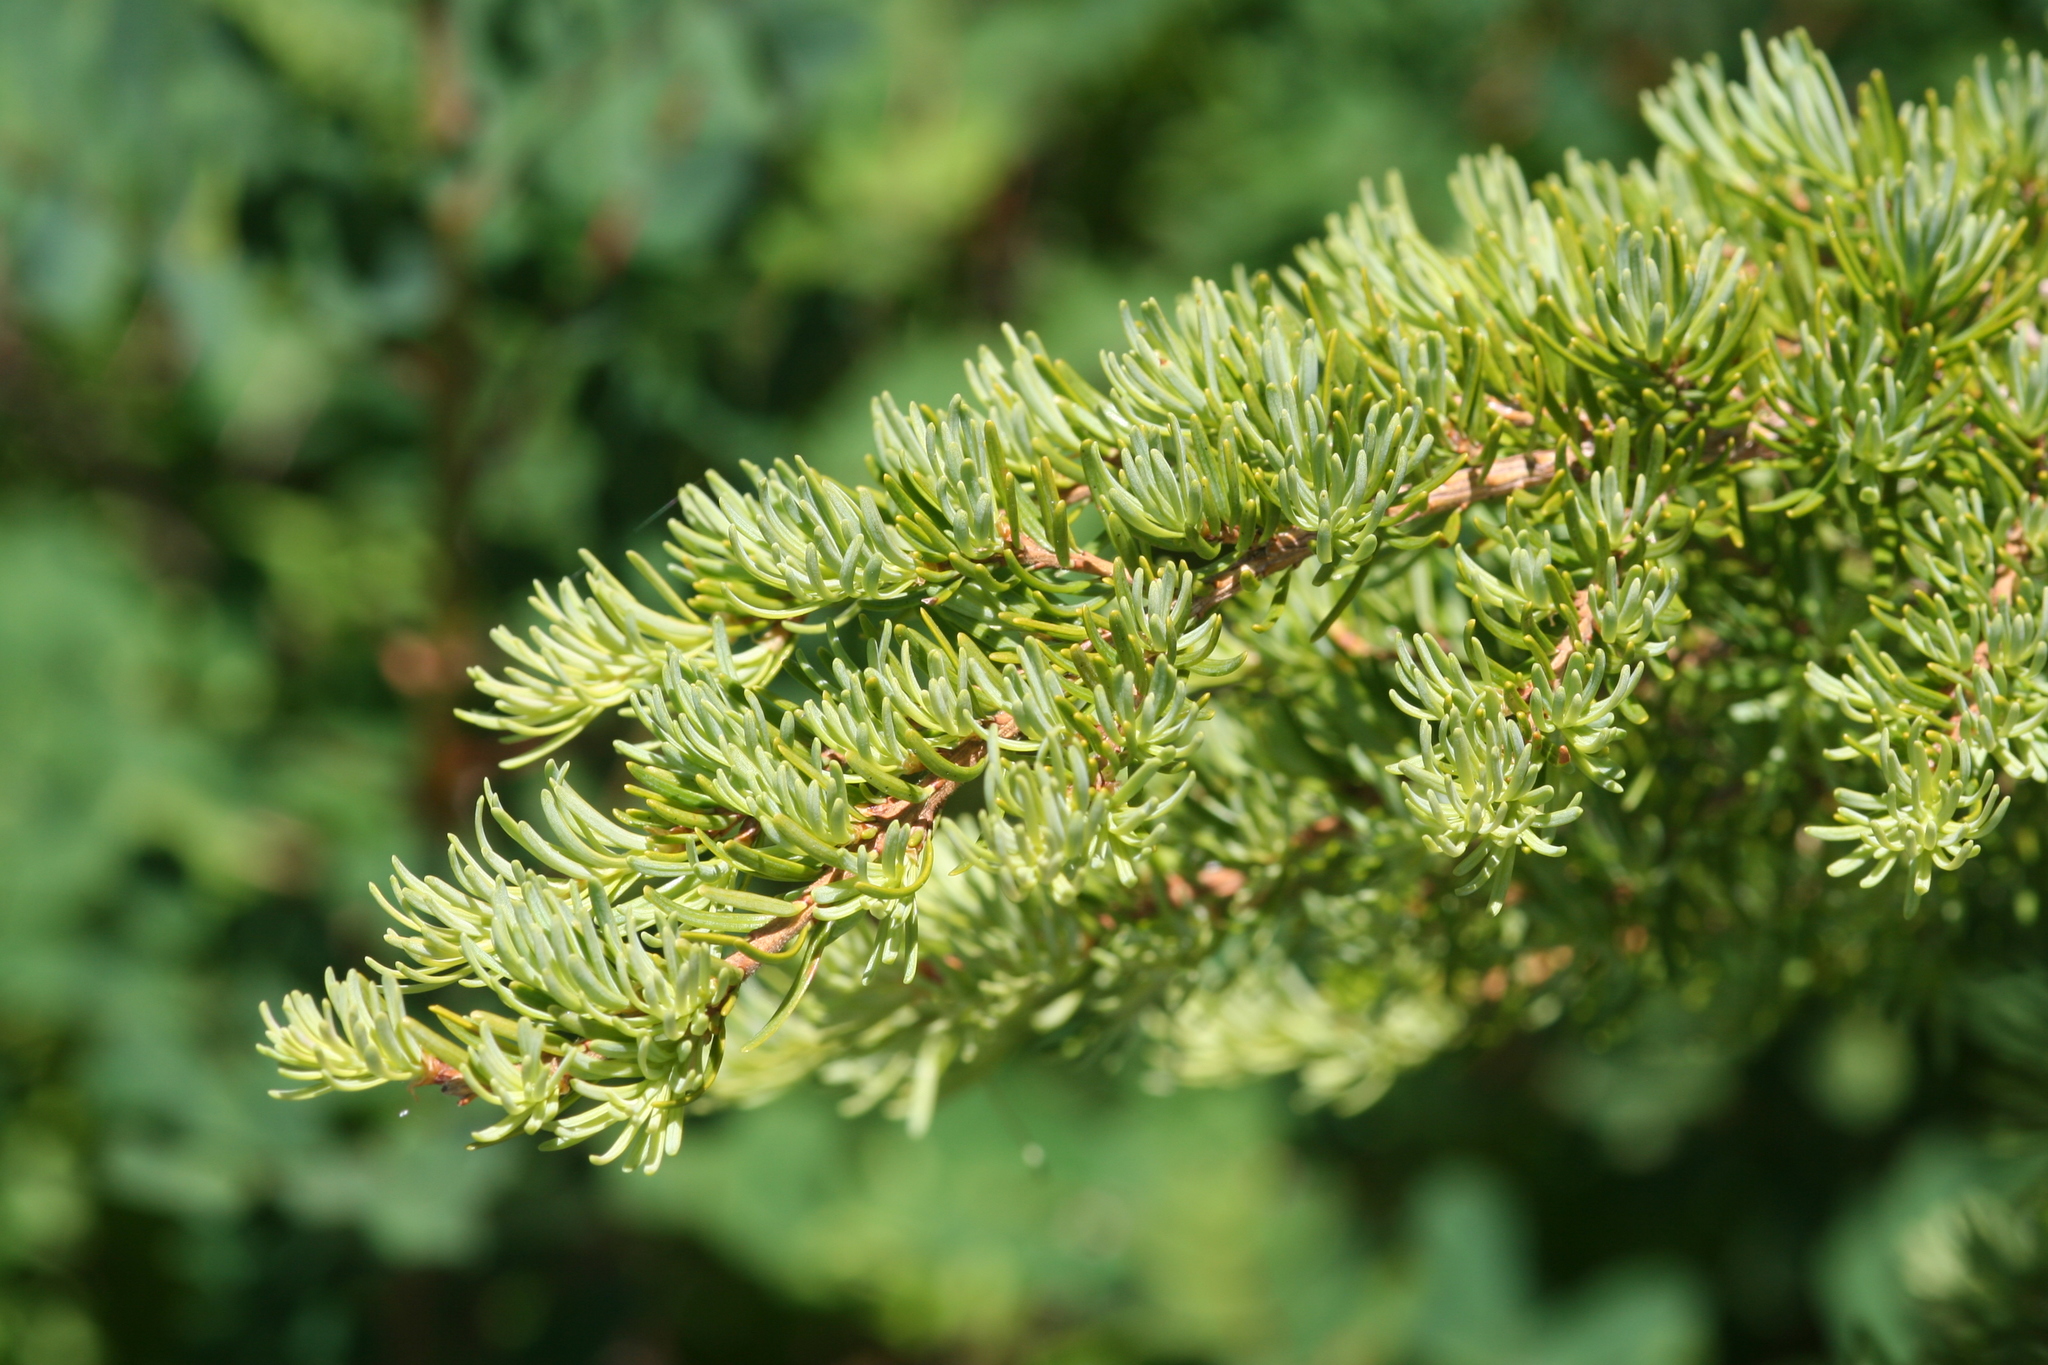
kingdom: Plantae
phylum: Tracheophyta
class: Pinopsida
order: Pinales
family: Pinaceae
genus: Tsuga
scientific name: Tsuga mertensiana
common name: Mountain hemlock
